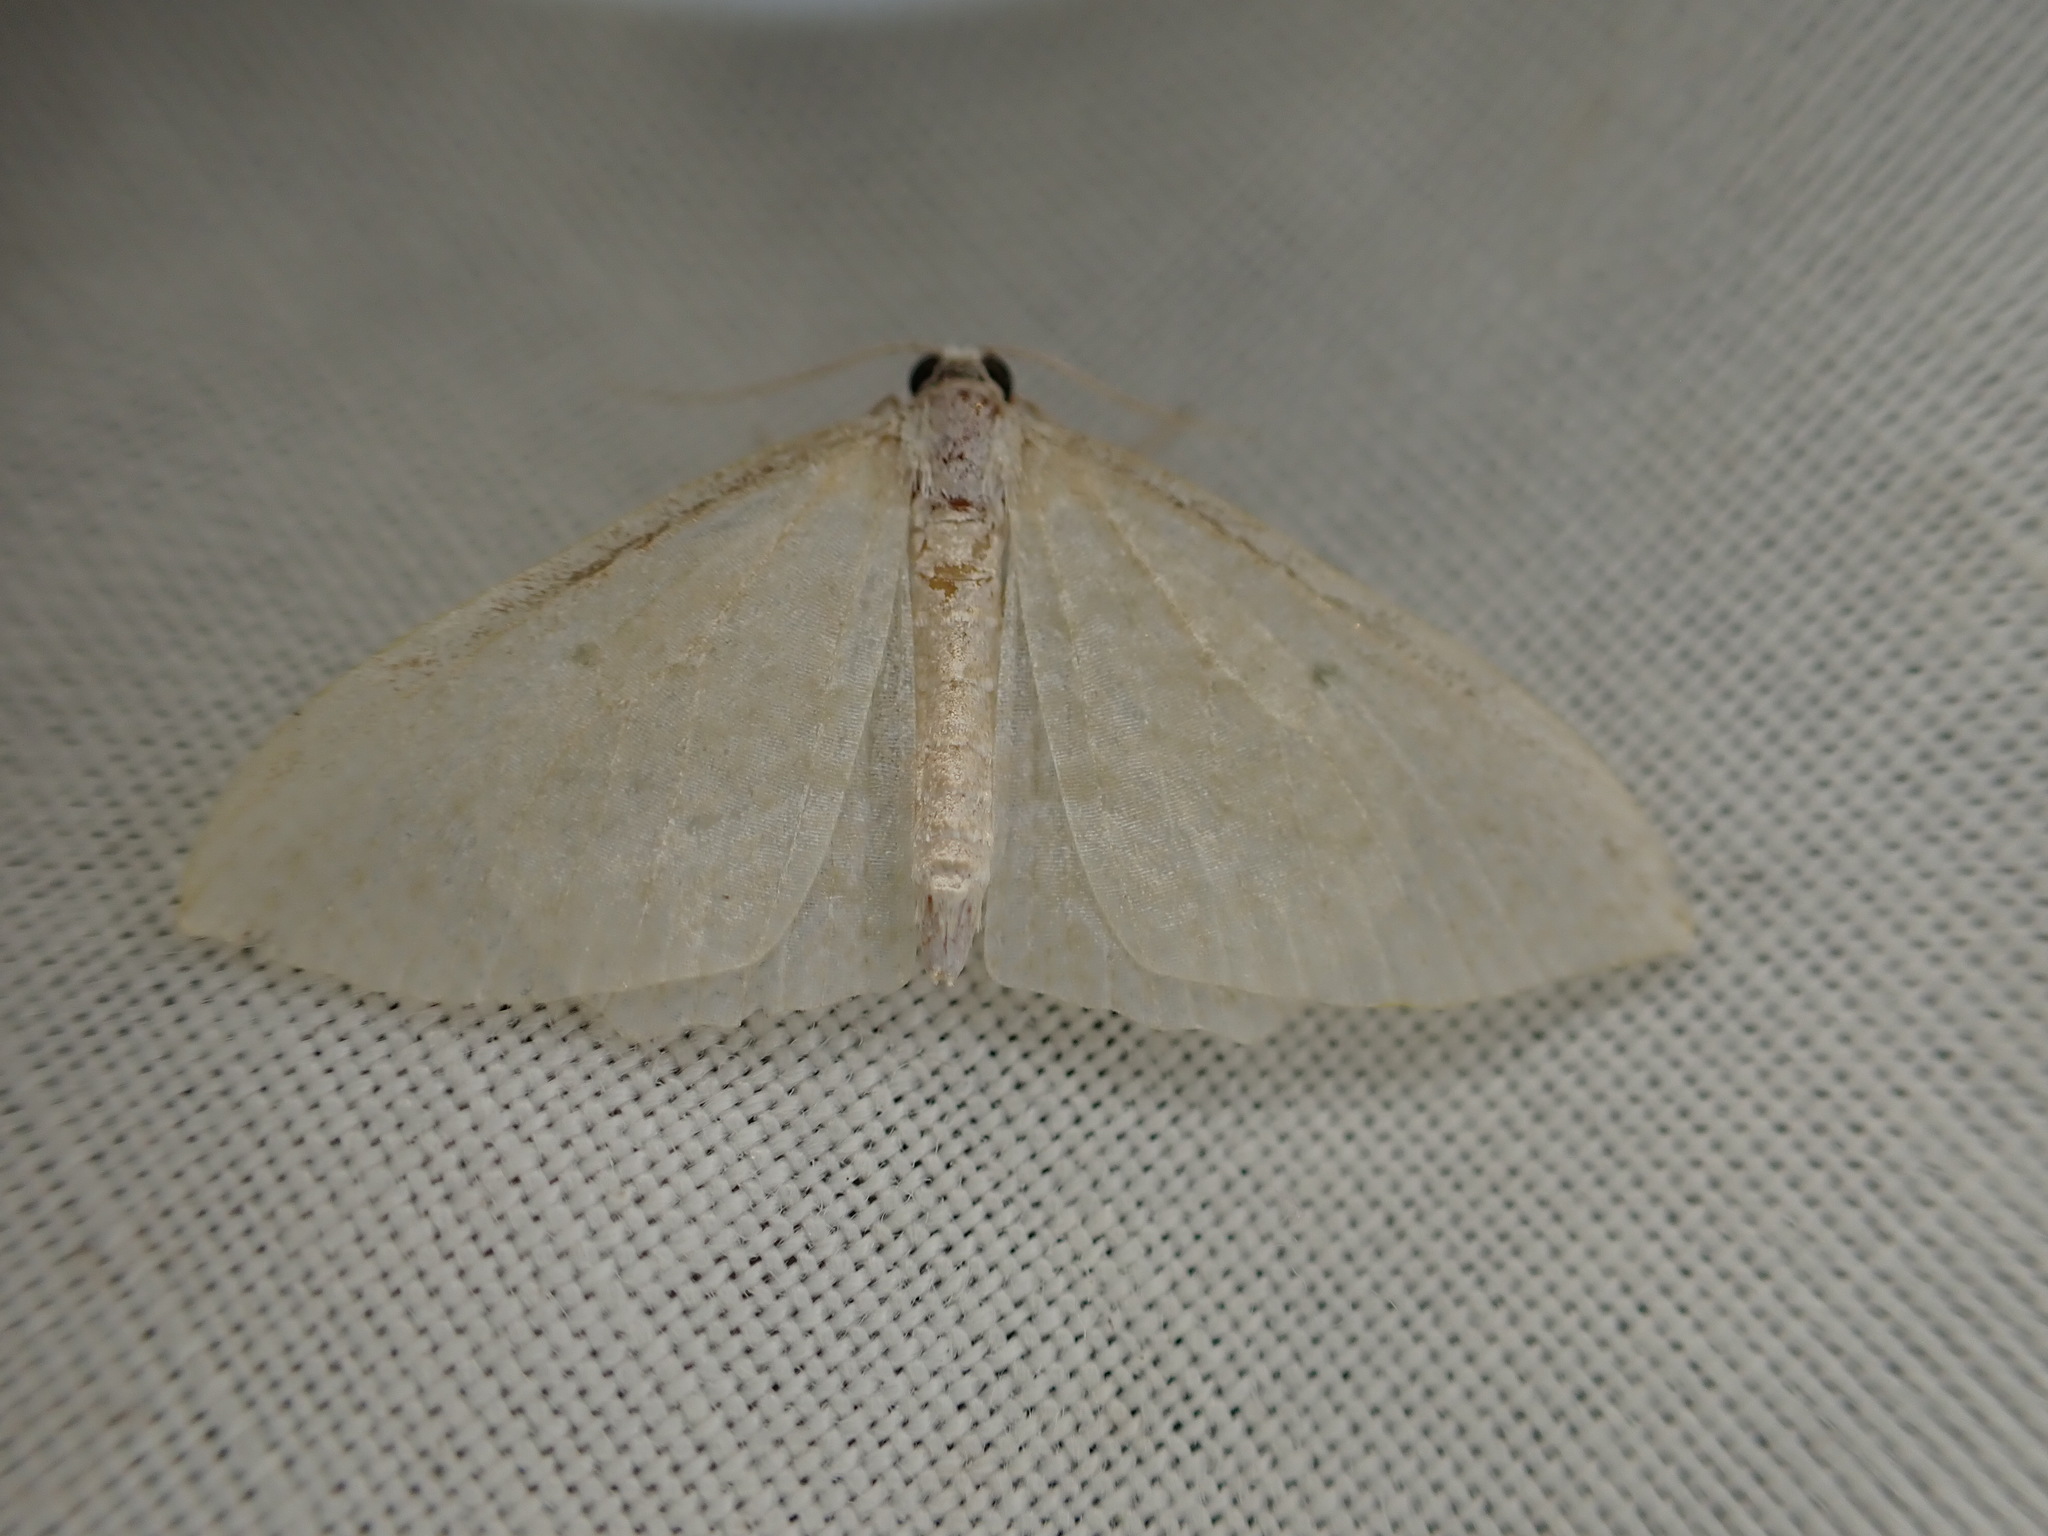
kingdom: Animalia
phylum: Arthropoda
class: Insecta
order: Lepidoptera
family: Geometridae
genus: Poecilasthena
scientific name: Poecilasthena pulchraria
